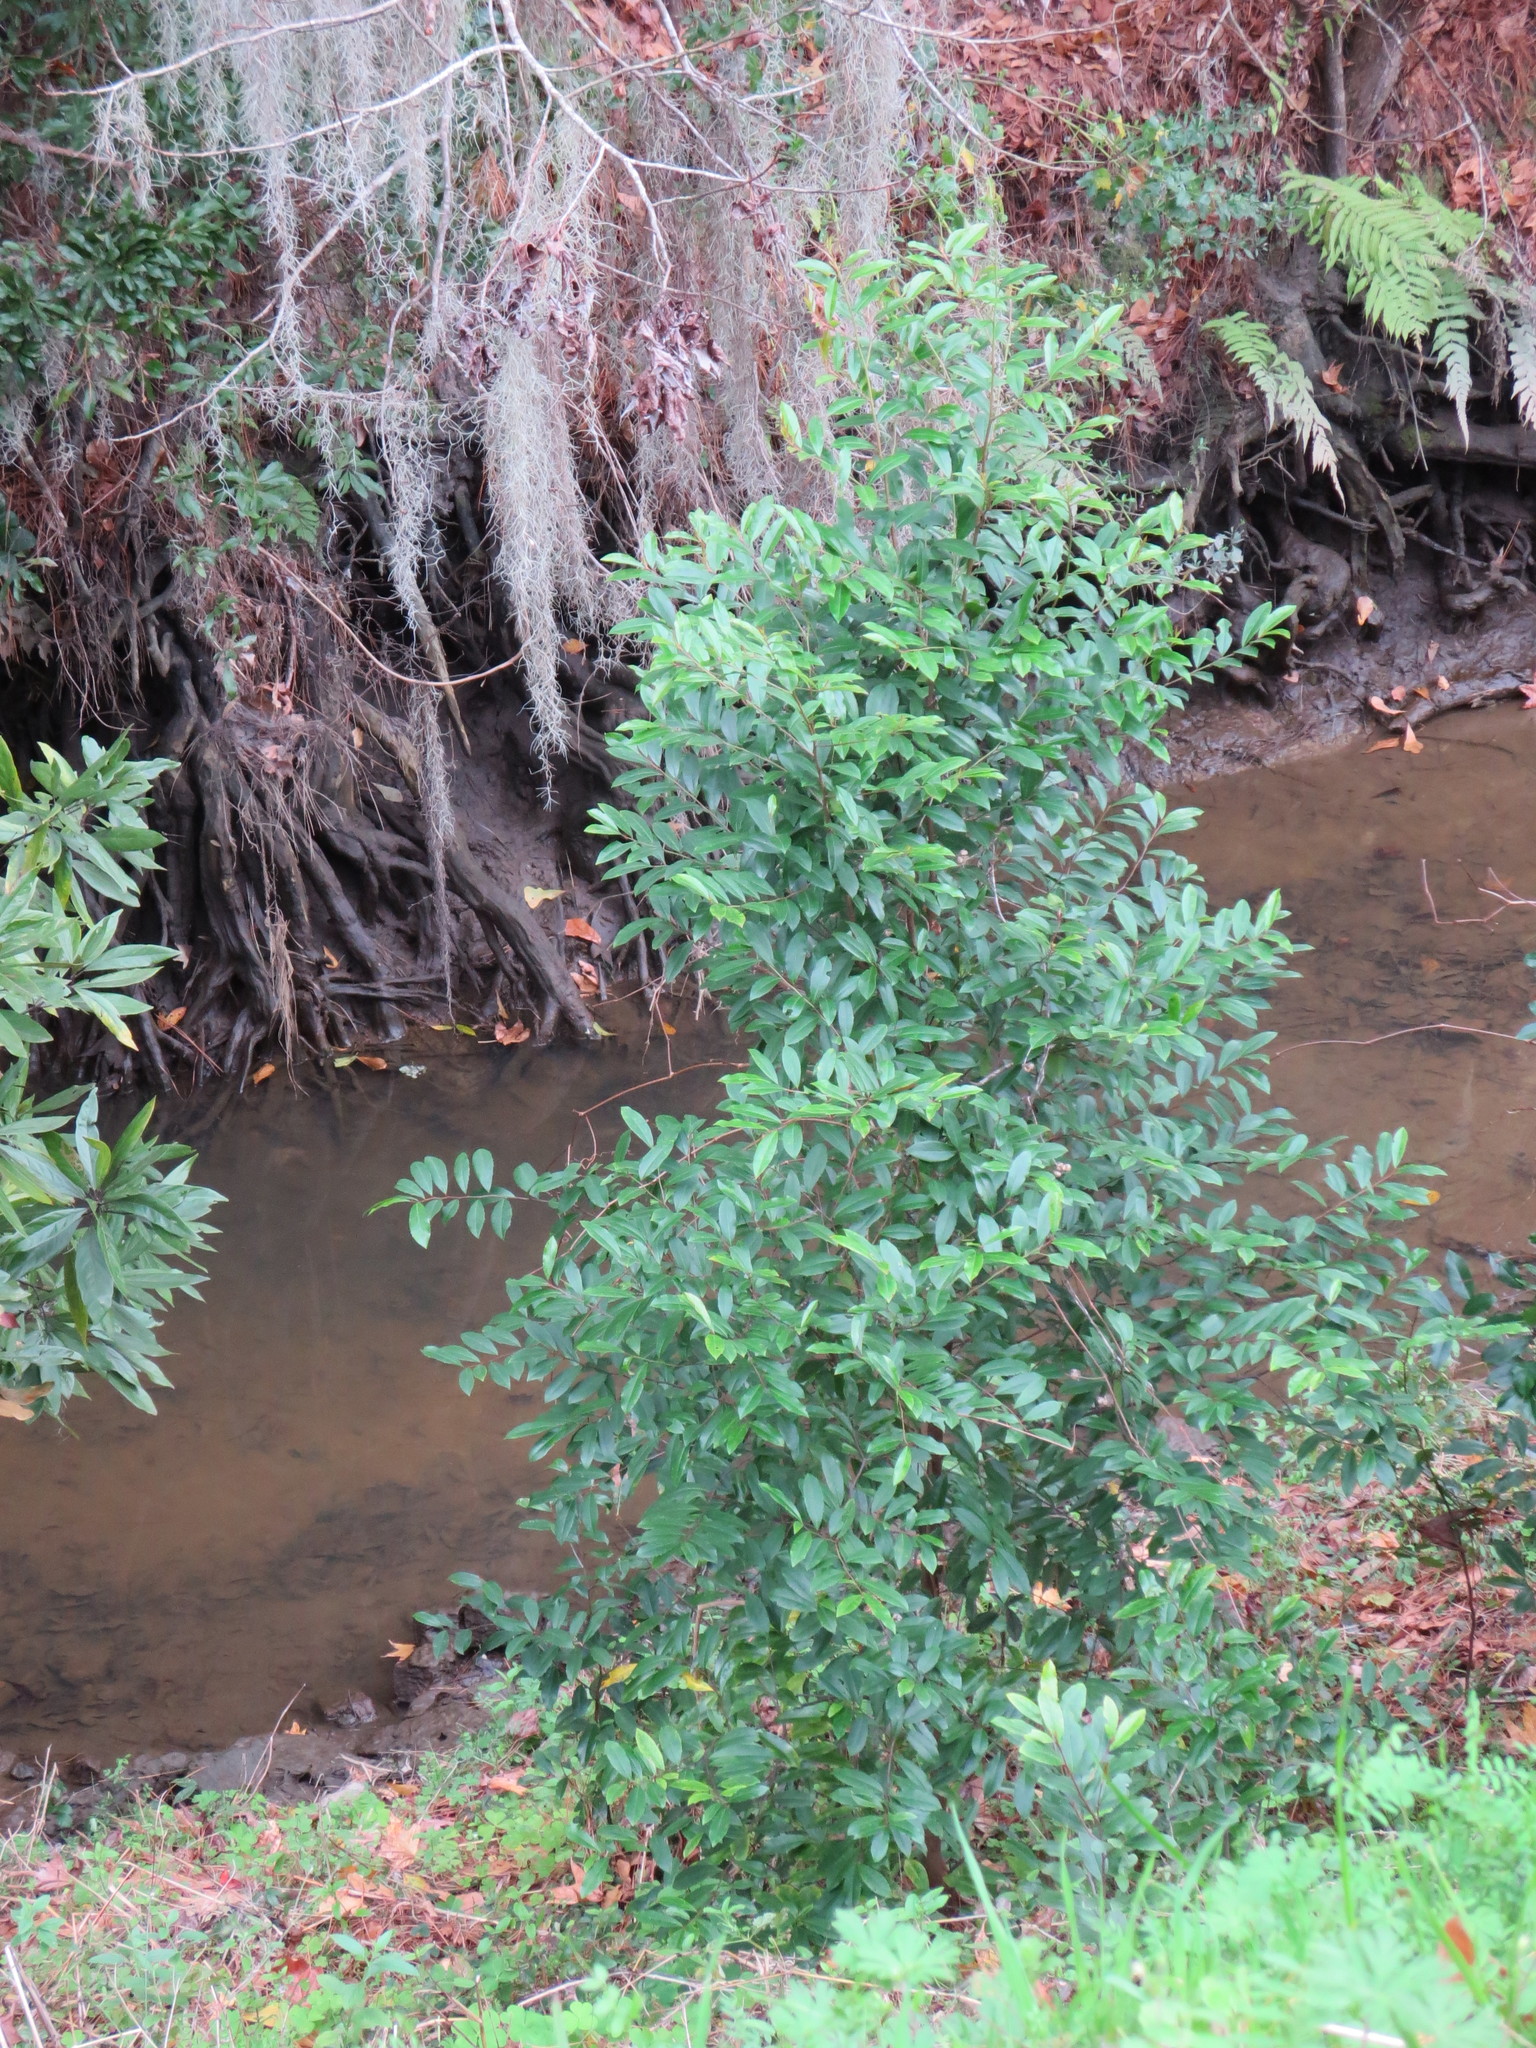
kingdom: Plantae
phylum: Tracheophyta
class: Magnoliopsida
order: Rosales
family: Rosaceae
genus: Prunus
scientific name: Prunus caroliniana
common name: Carolina laurel cherry
